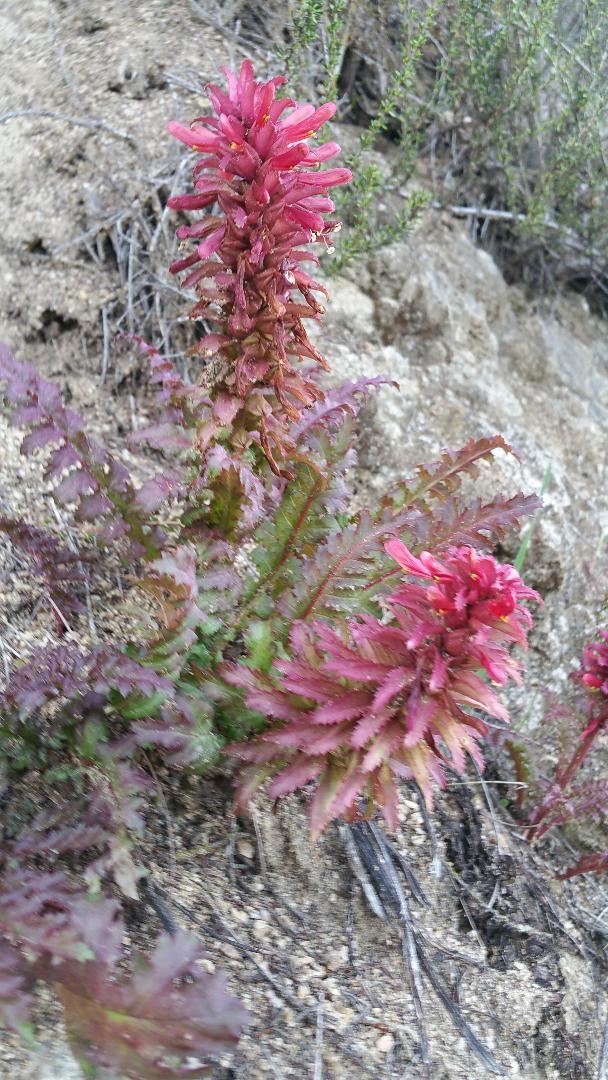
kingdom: Plantae
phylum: Tracheophyta
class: Magnoliopsida
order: Lamiales
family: Orobanchaceae
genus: Pedicularis
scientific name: Pedicularis densiflora
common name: Indian warrior
